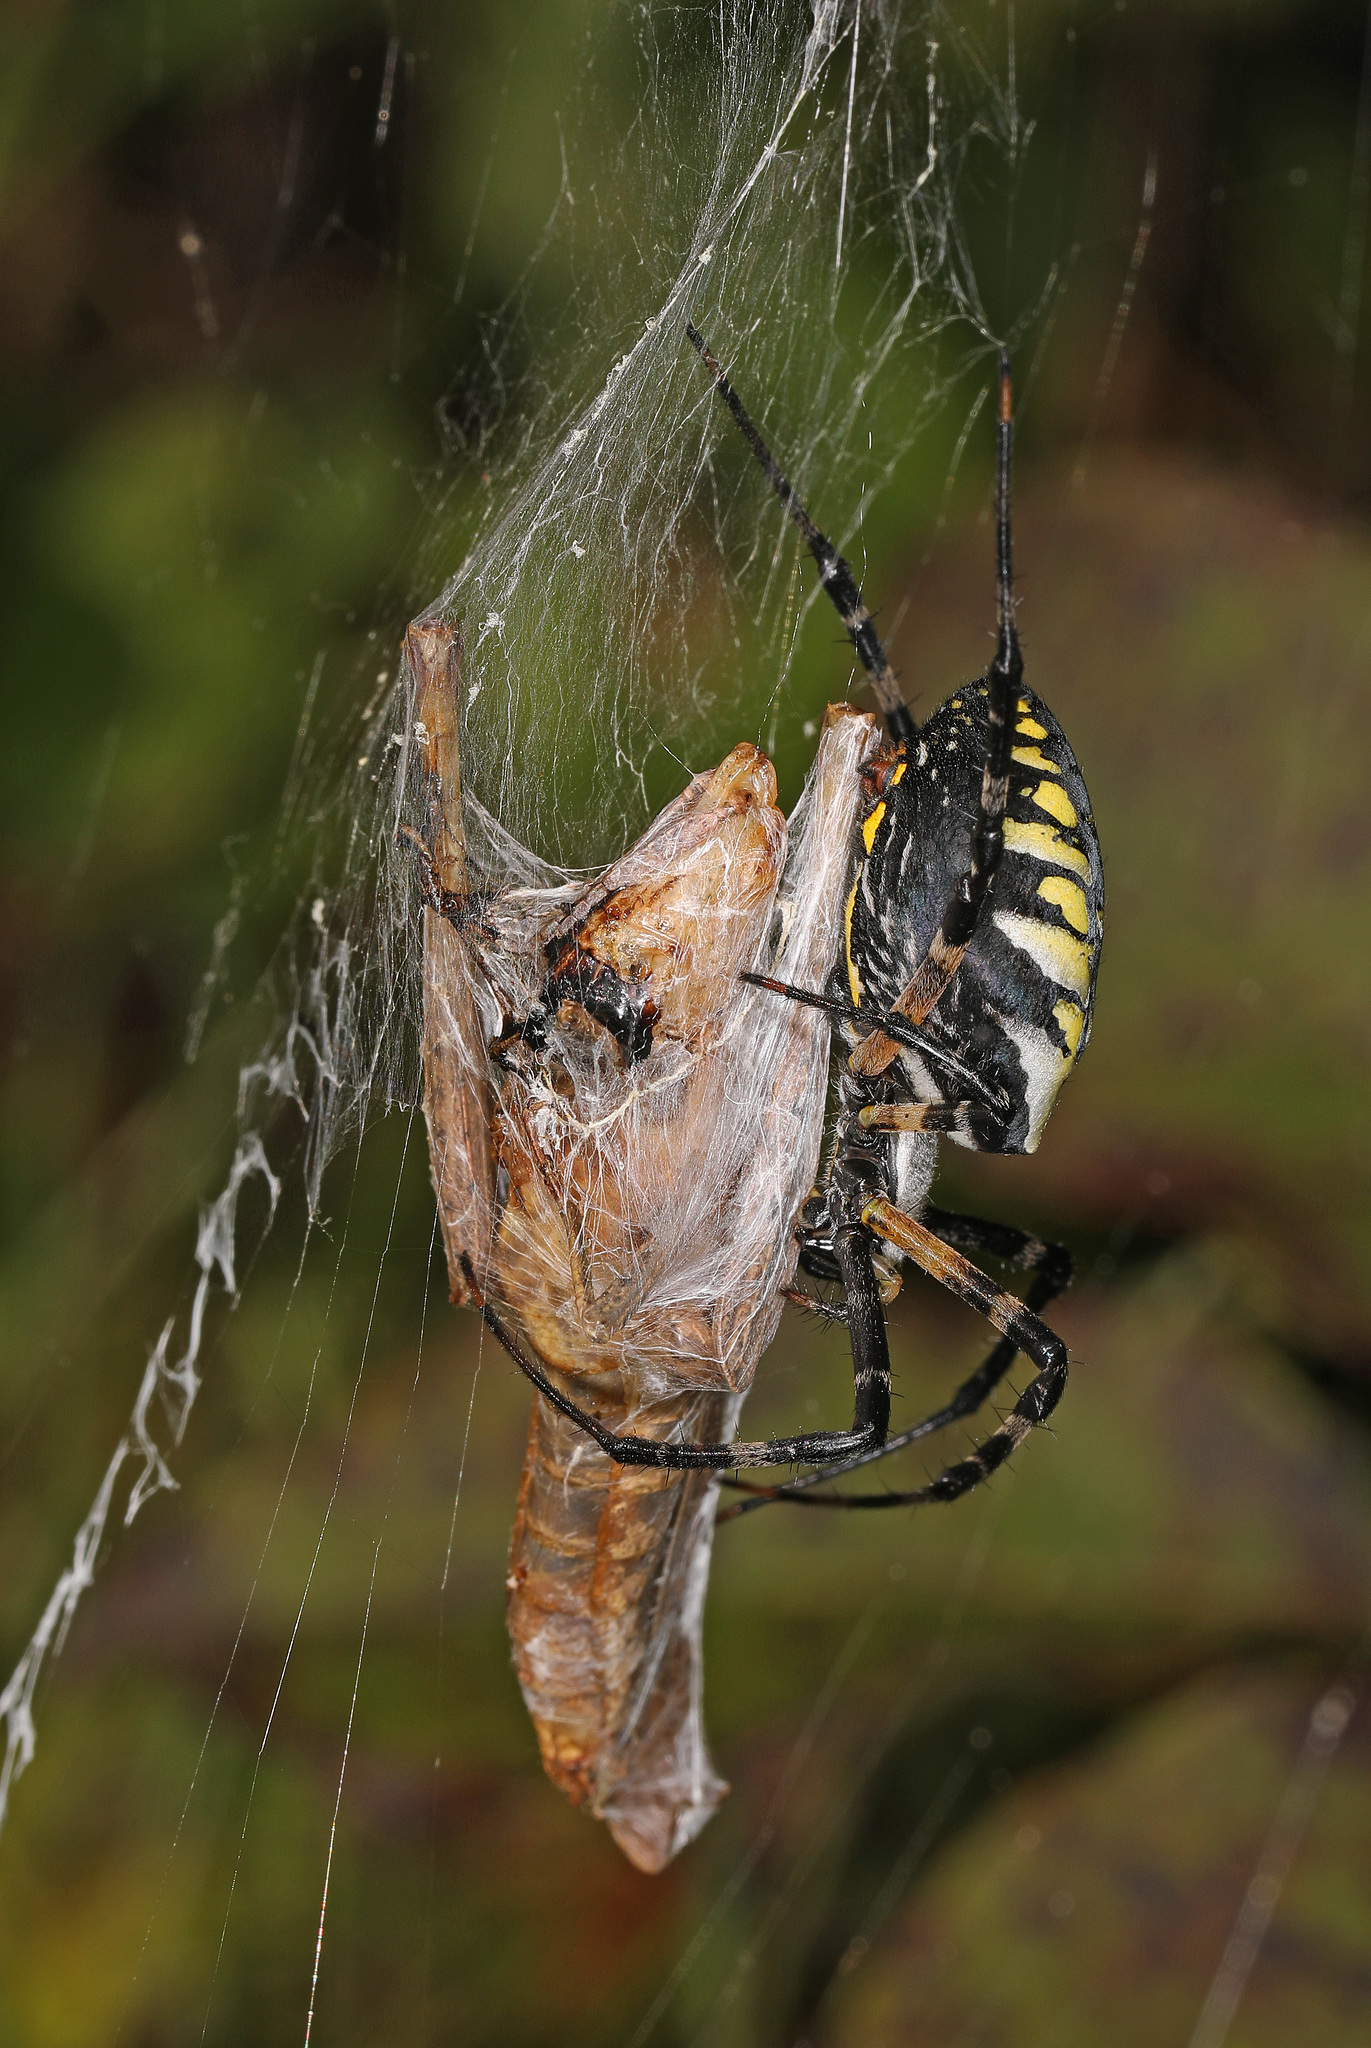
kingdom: Animalia
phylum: Arthropoda
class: Arachnida
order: Araneae
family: Araneidae
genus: Argiope
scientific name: Argiope aurantia
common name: Orb weavers
